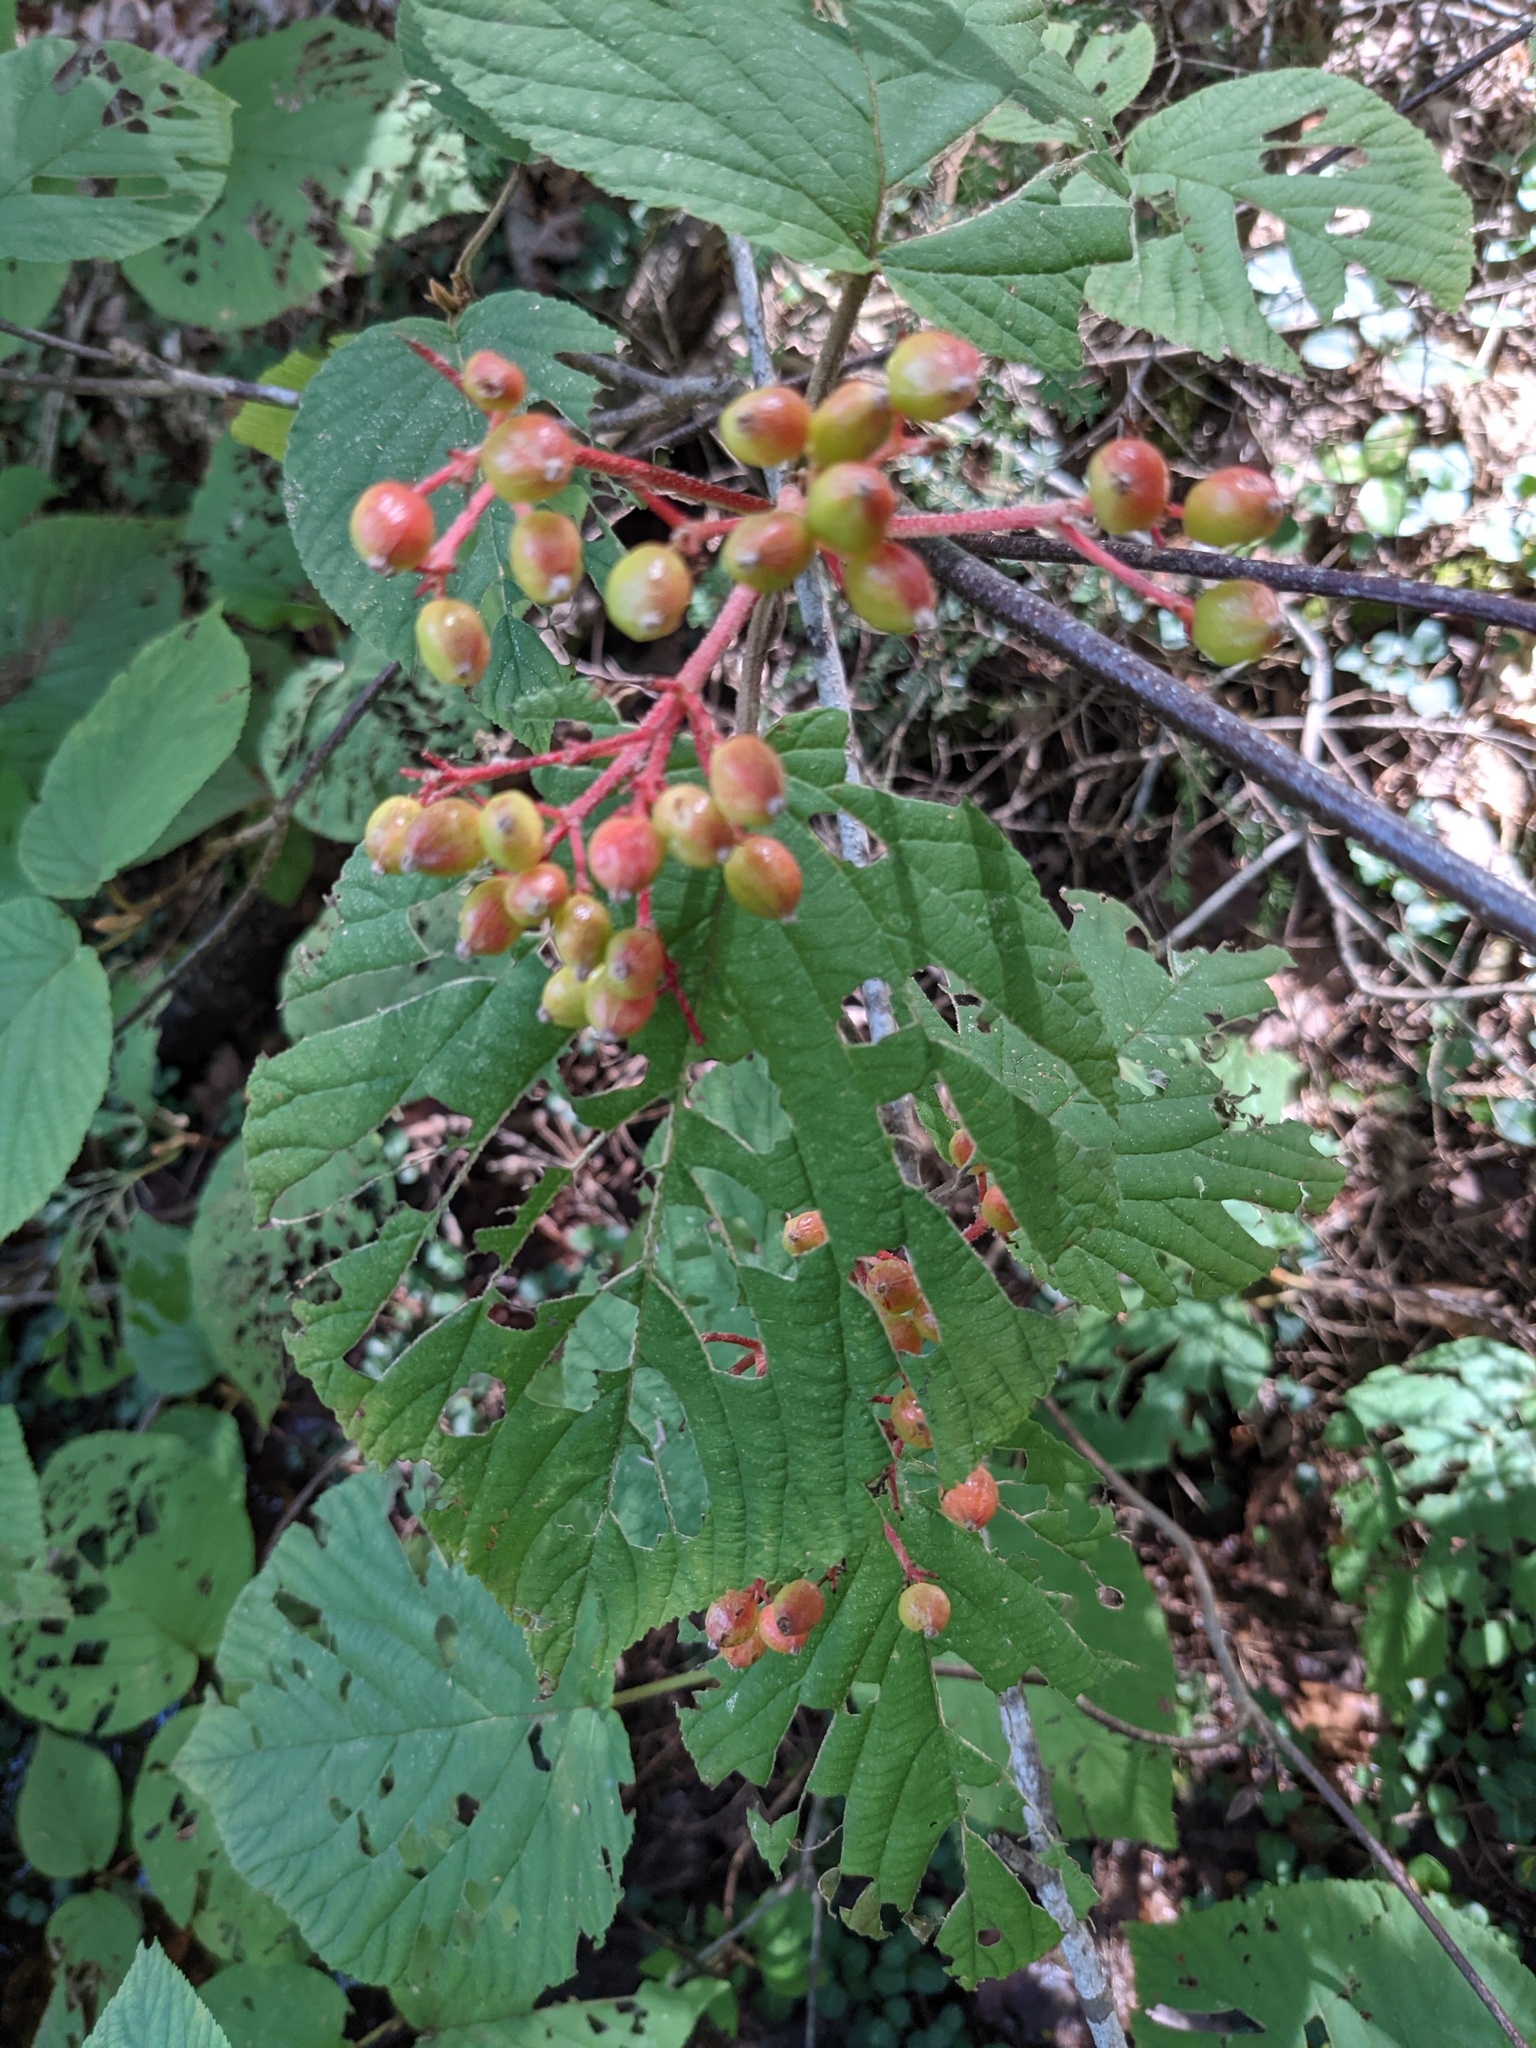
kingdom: Plantae
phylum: Tracheophyta
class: Magnoliopsida
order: Dipsacales
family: Viburnaceae
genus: Viburnum
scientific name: Viburnum lantanoides
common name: Hobblebush
